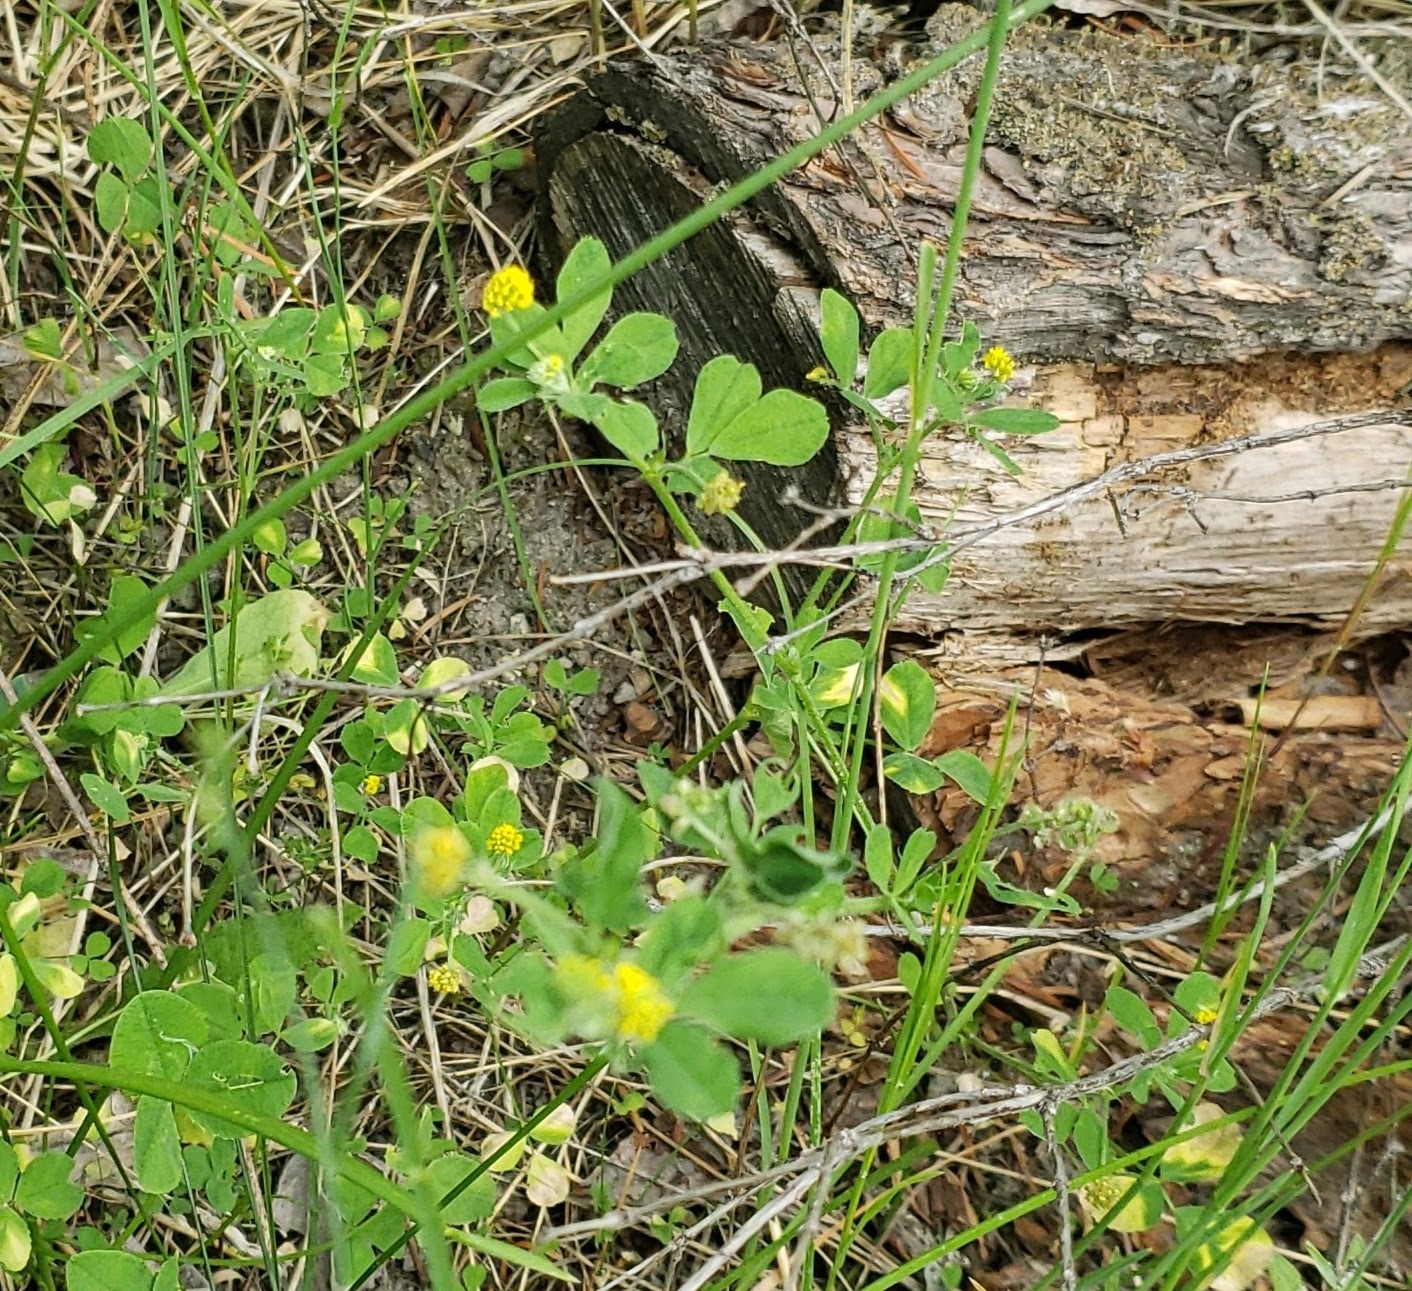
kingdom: Plantae
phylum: Tracheophyta
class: Magnoliopsida
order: Fabales
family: Fabaceae
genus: Medicago
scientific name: Medicago lupulina
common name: Black medick
